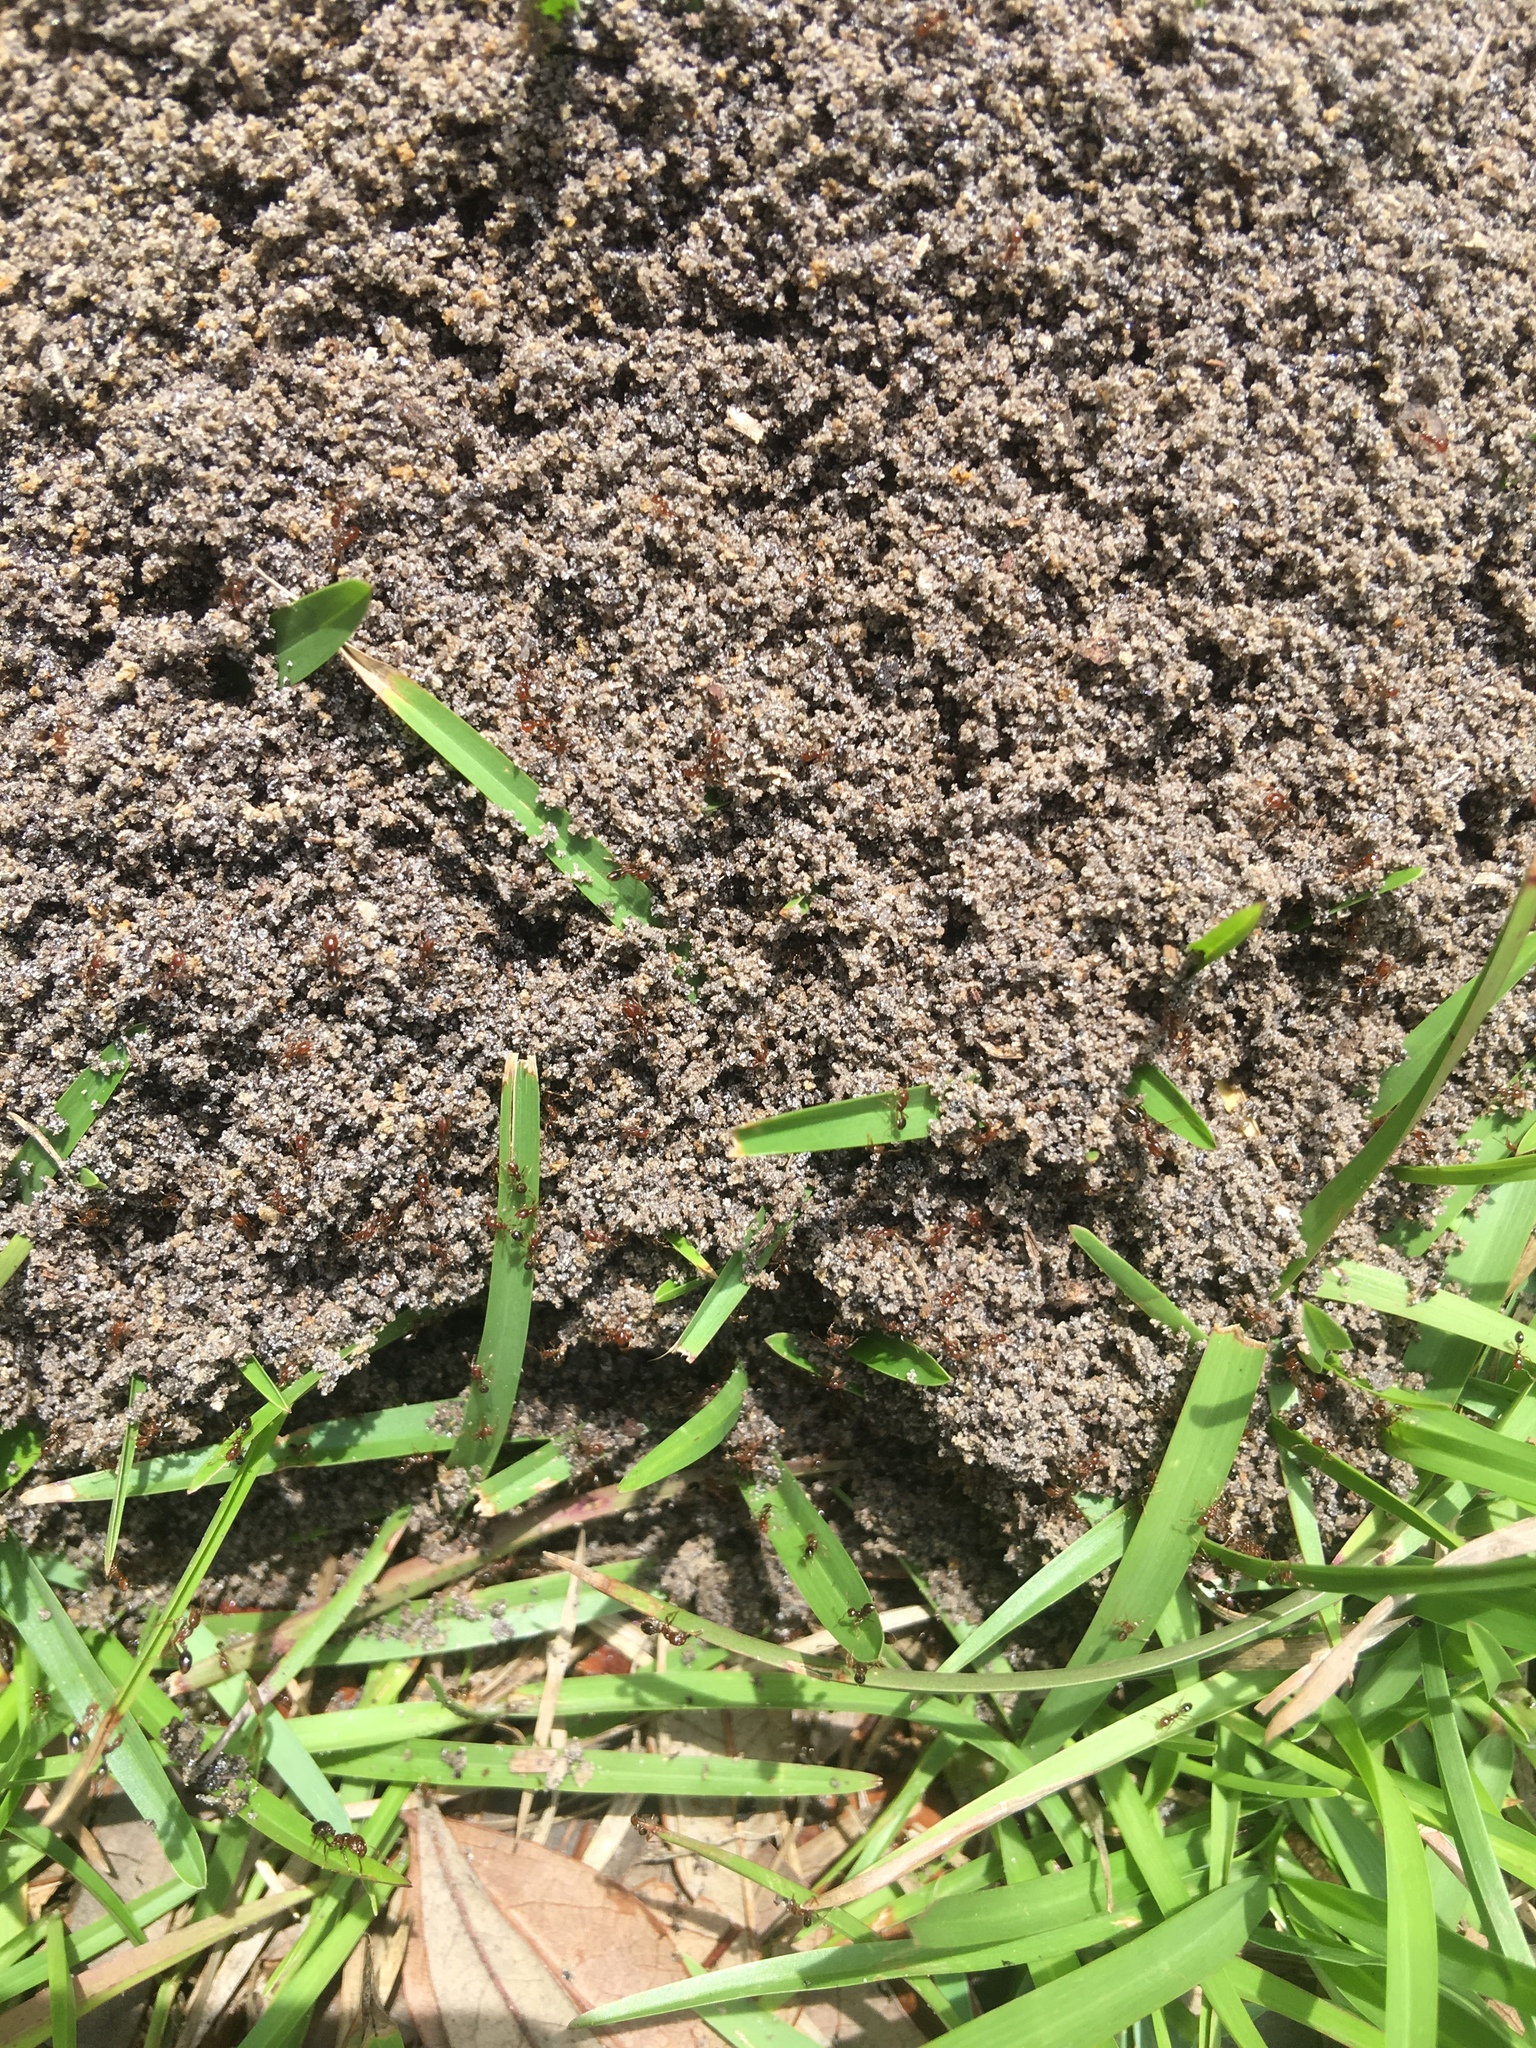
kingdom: Animalia
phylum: Arthropoda
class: Insecta
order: Hymenoptera
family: Formicidae
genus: Solenopsis
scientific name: Solenopsis invicta
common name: Red imported fire ant
